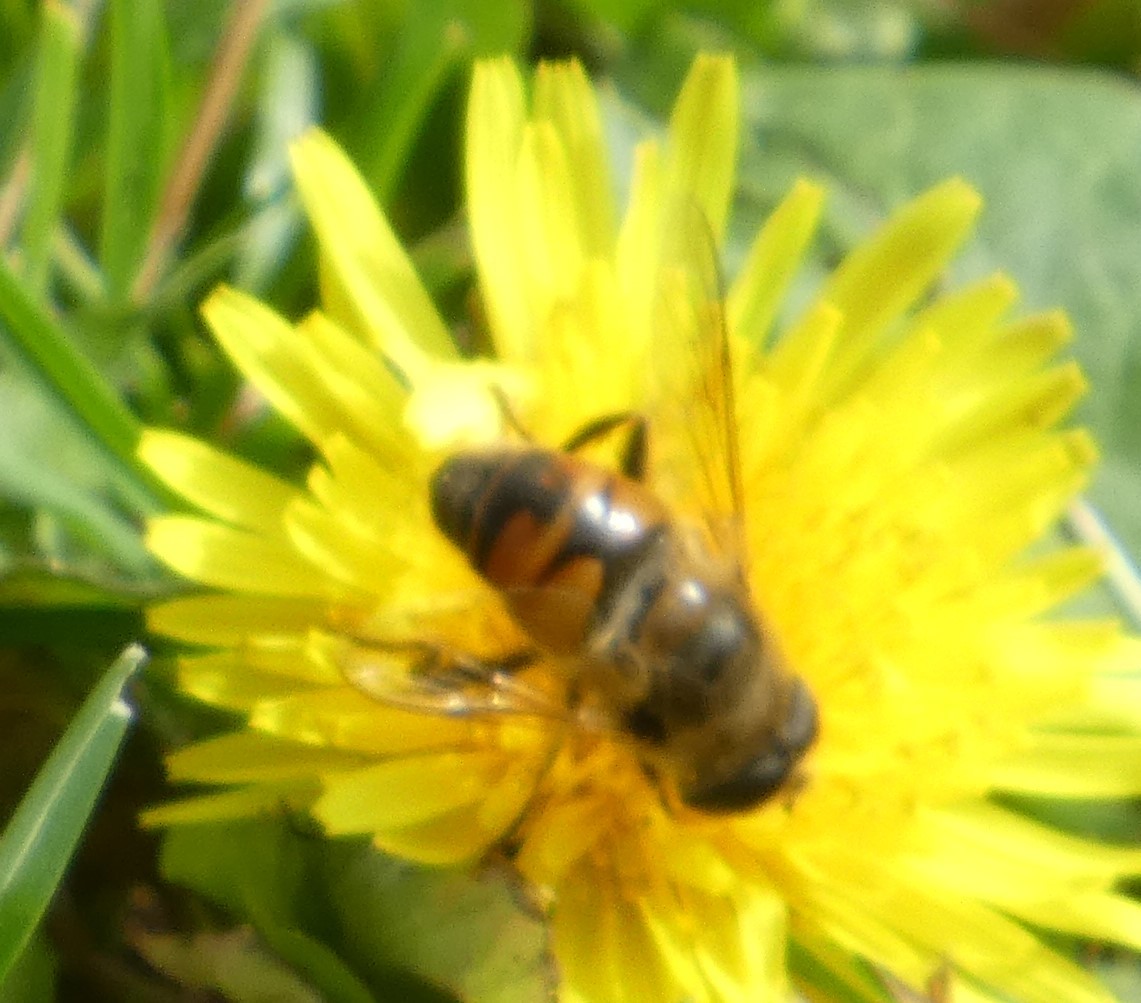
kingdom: Animalia
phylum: Arthropoda
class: Insecta
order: Diptera
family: Syrphidae
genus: Eristalis
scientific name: Eristalis tenax
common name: Drone fly
